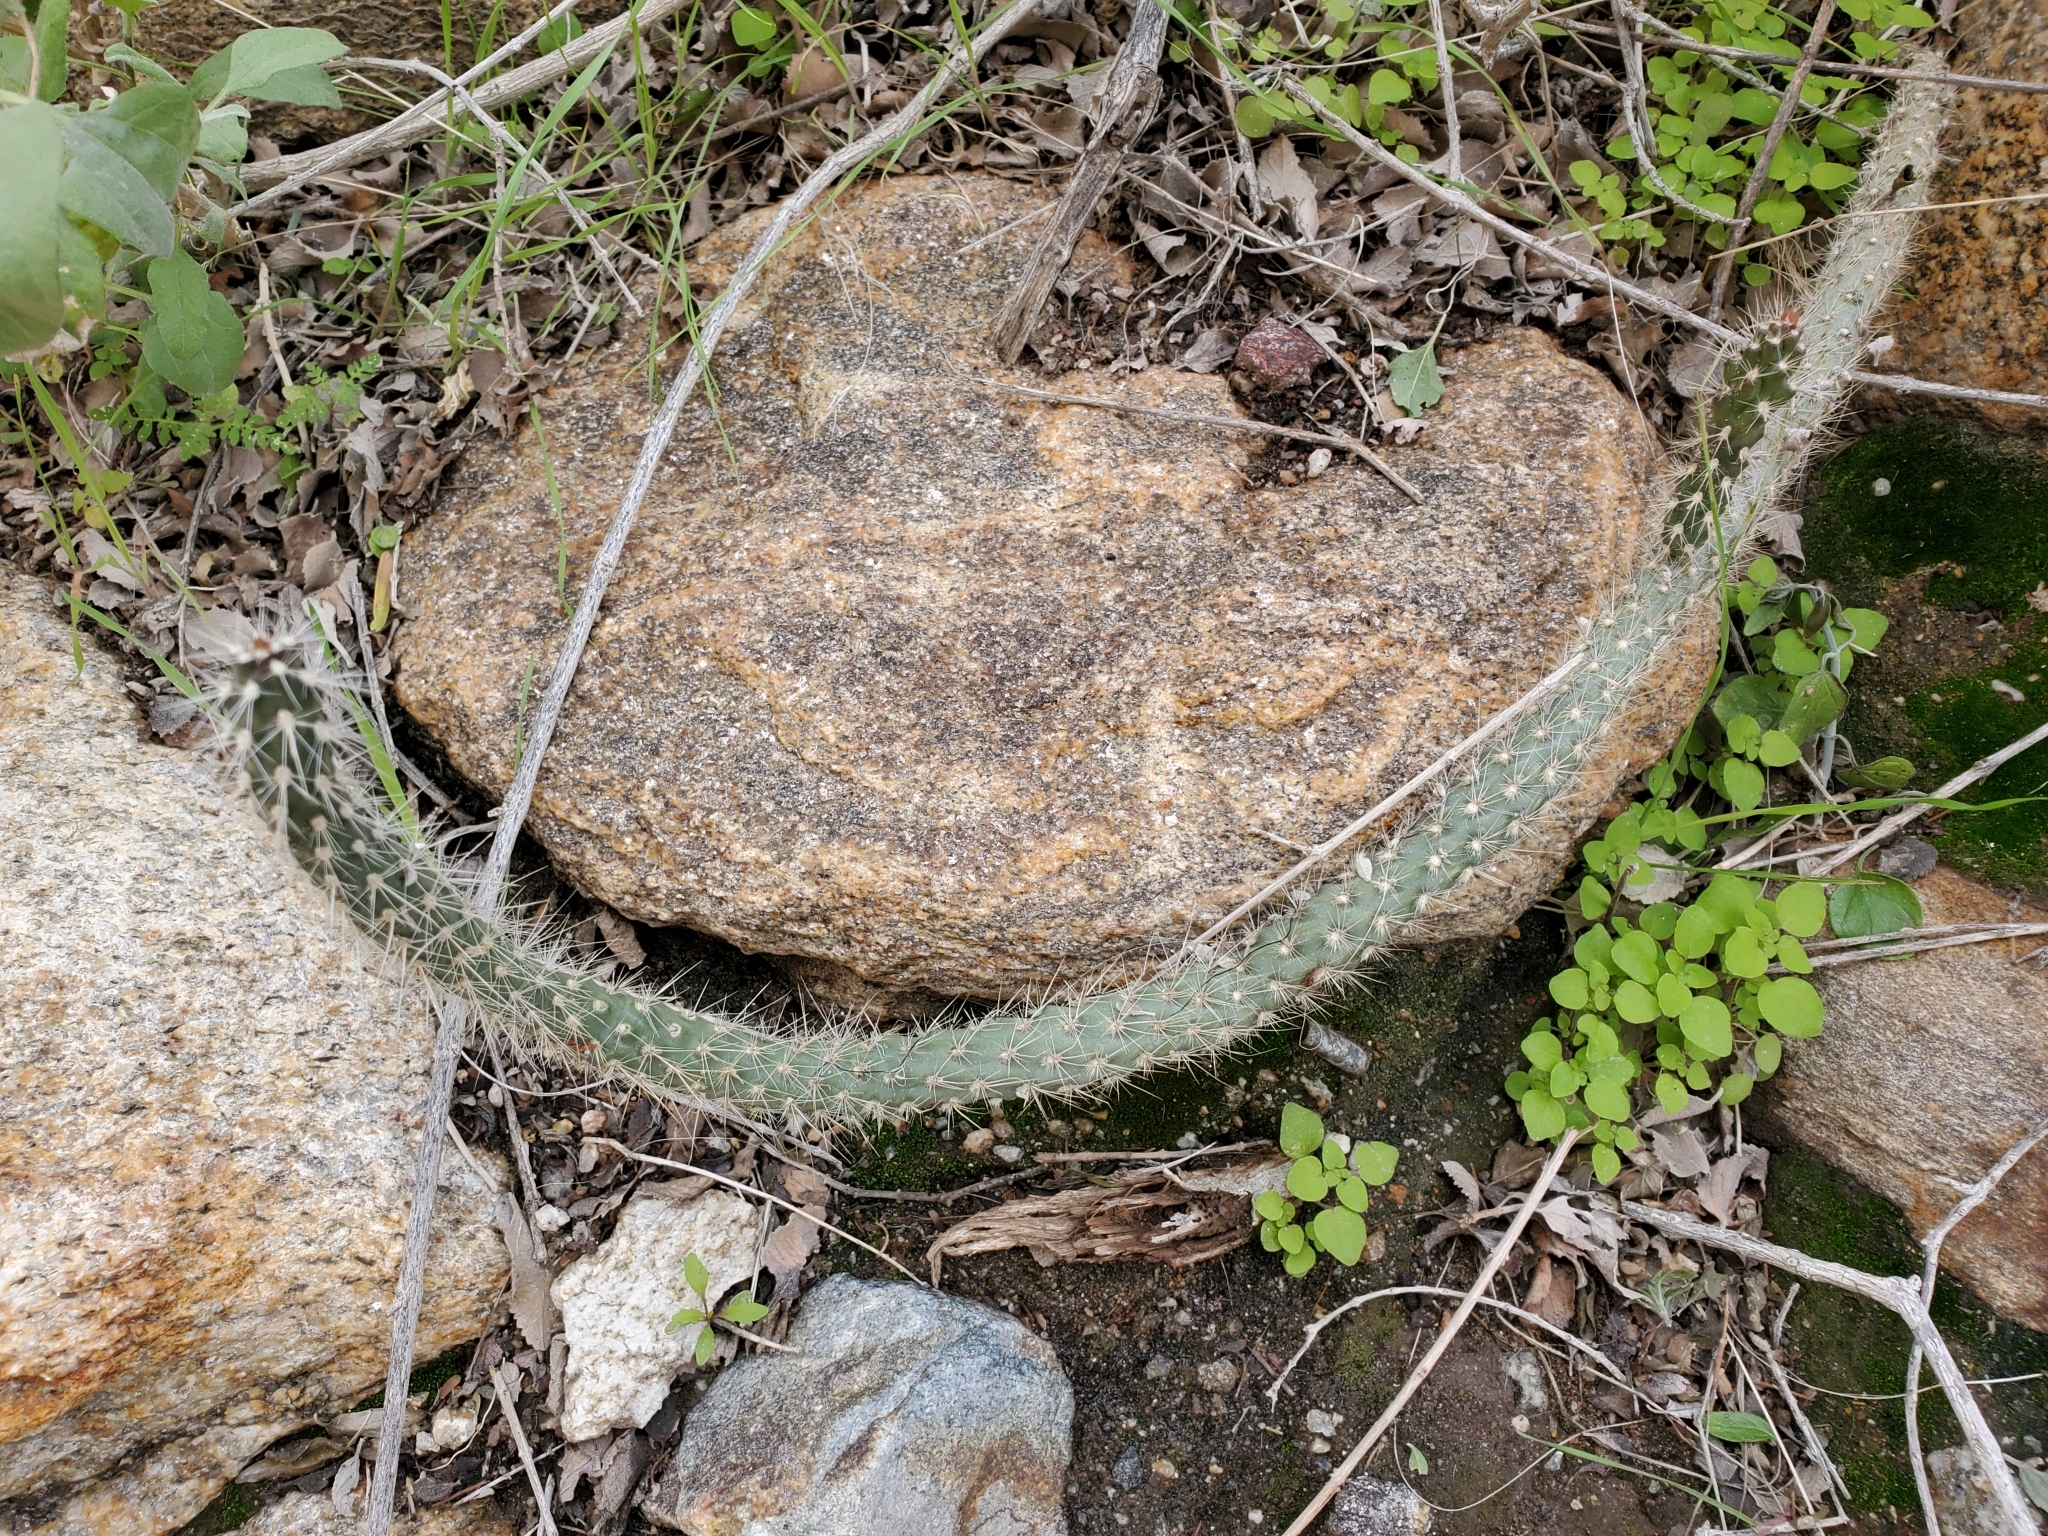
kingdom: Plantae
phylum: Tracheophyta
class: Magnoliopsida
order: Caryophyllales
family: Cactaceae
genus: Cylindropuntia
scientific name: Cylindropuntia ganderi
